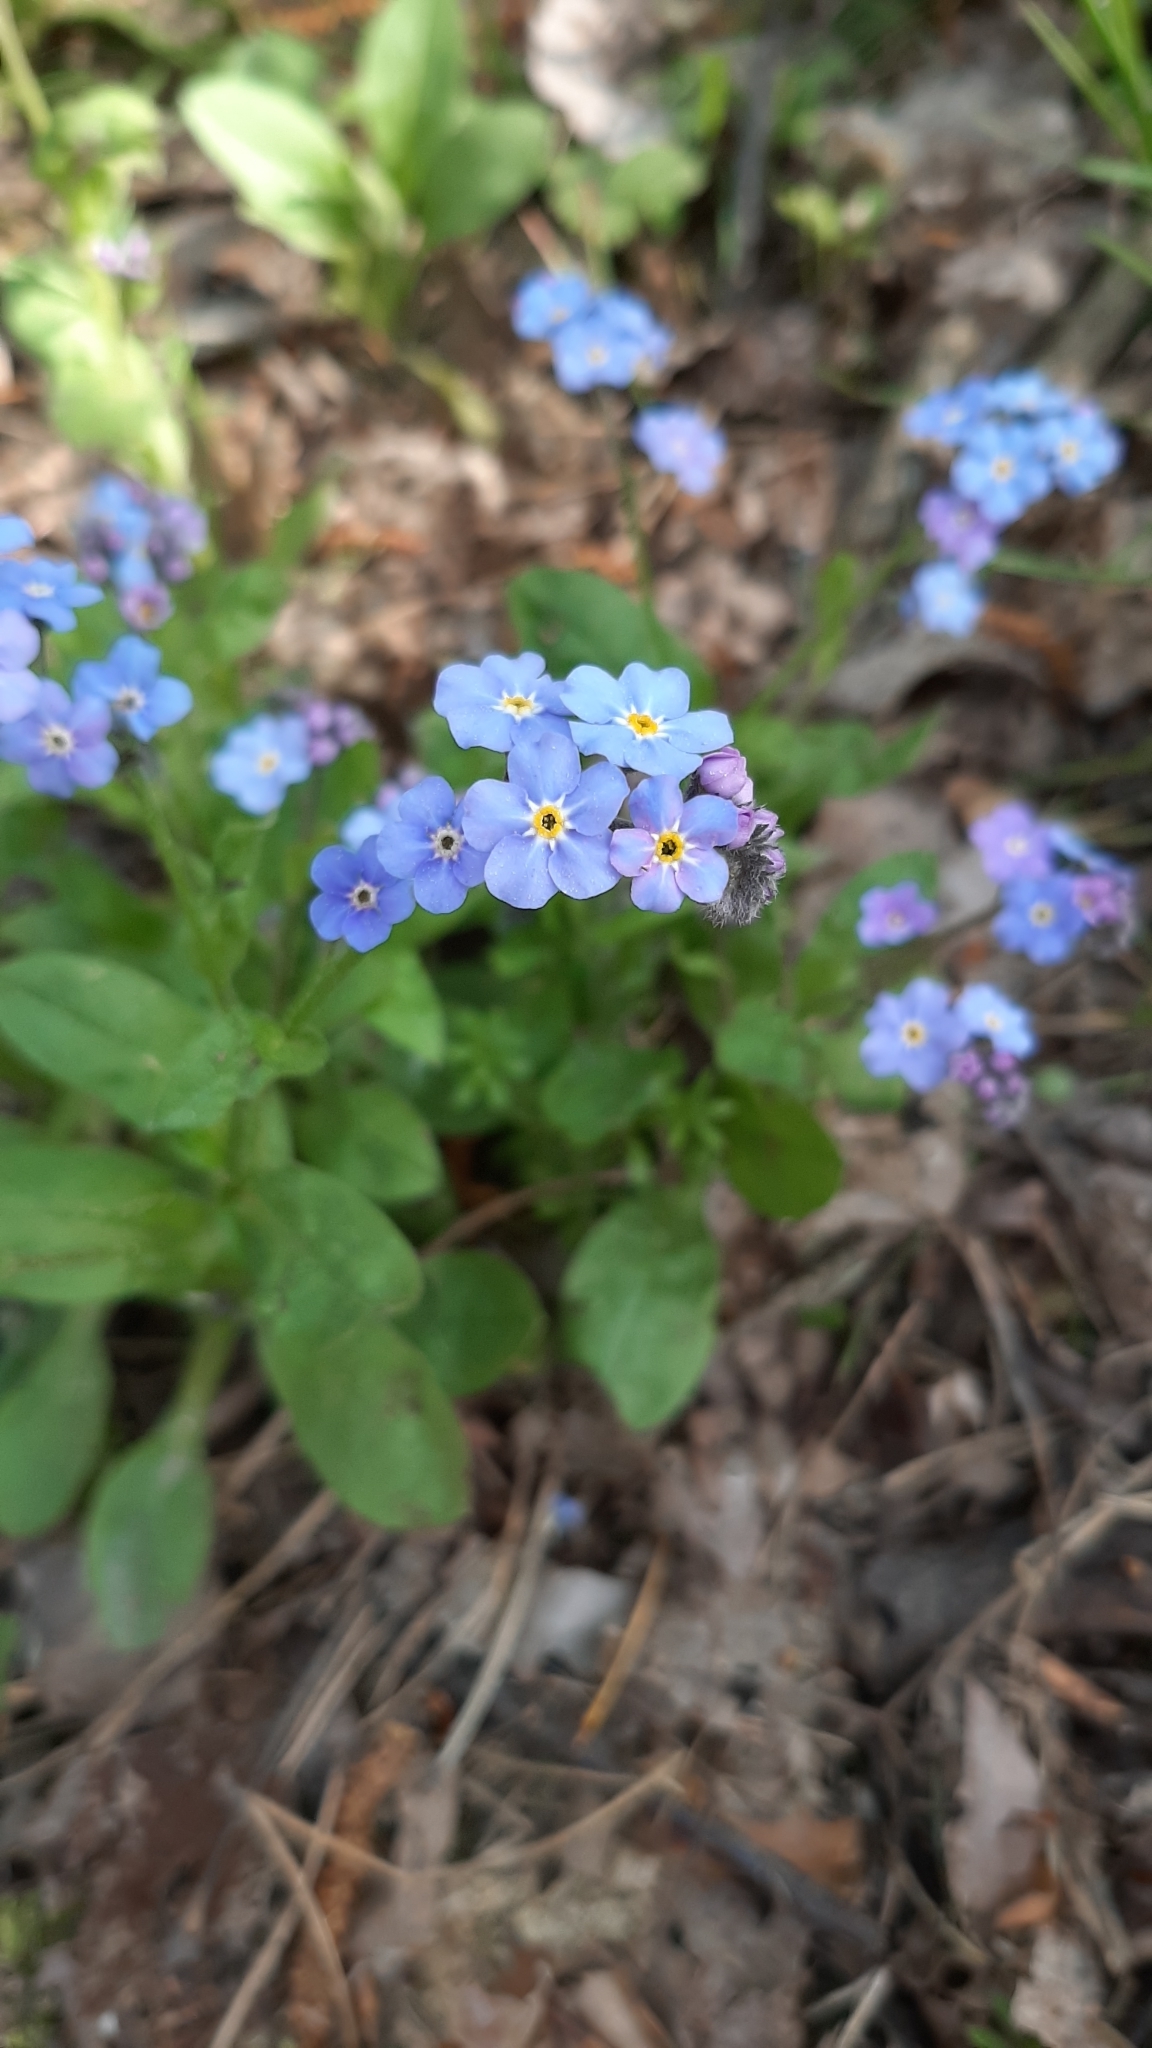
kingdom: Plantae
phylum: Tracheophyta
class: Magnoliopsida
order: Boraginales
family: Boraginaceae
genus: Myosotis
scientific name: Myosotis sylvatica
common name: Wood forget-me-not
